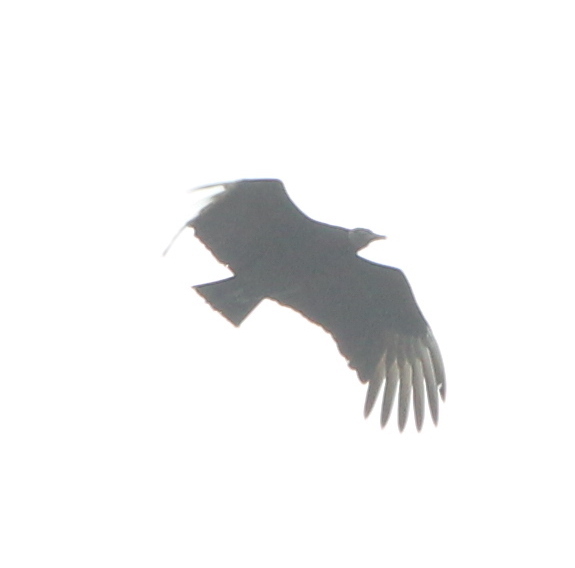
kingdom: Animalia
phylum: Chordata
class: Aves
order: Accipitriformes
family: Cathartidae
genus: Coragyps
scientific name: Coragyps atratus
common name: Black vulture
